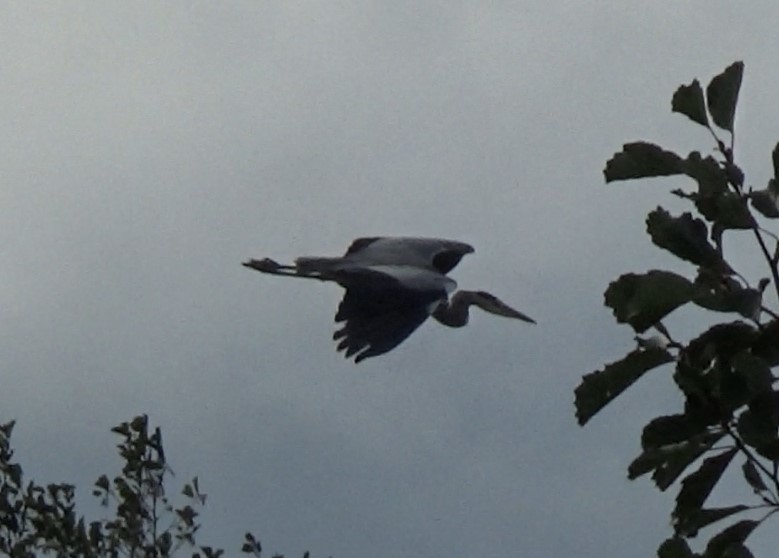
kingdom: Animalia
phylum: Chordata
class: Aves
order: Gruiformes
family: Rallidae
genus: Gallinula
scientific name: Gallinula chloropus
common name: Common moorhen
